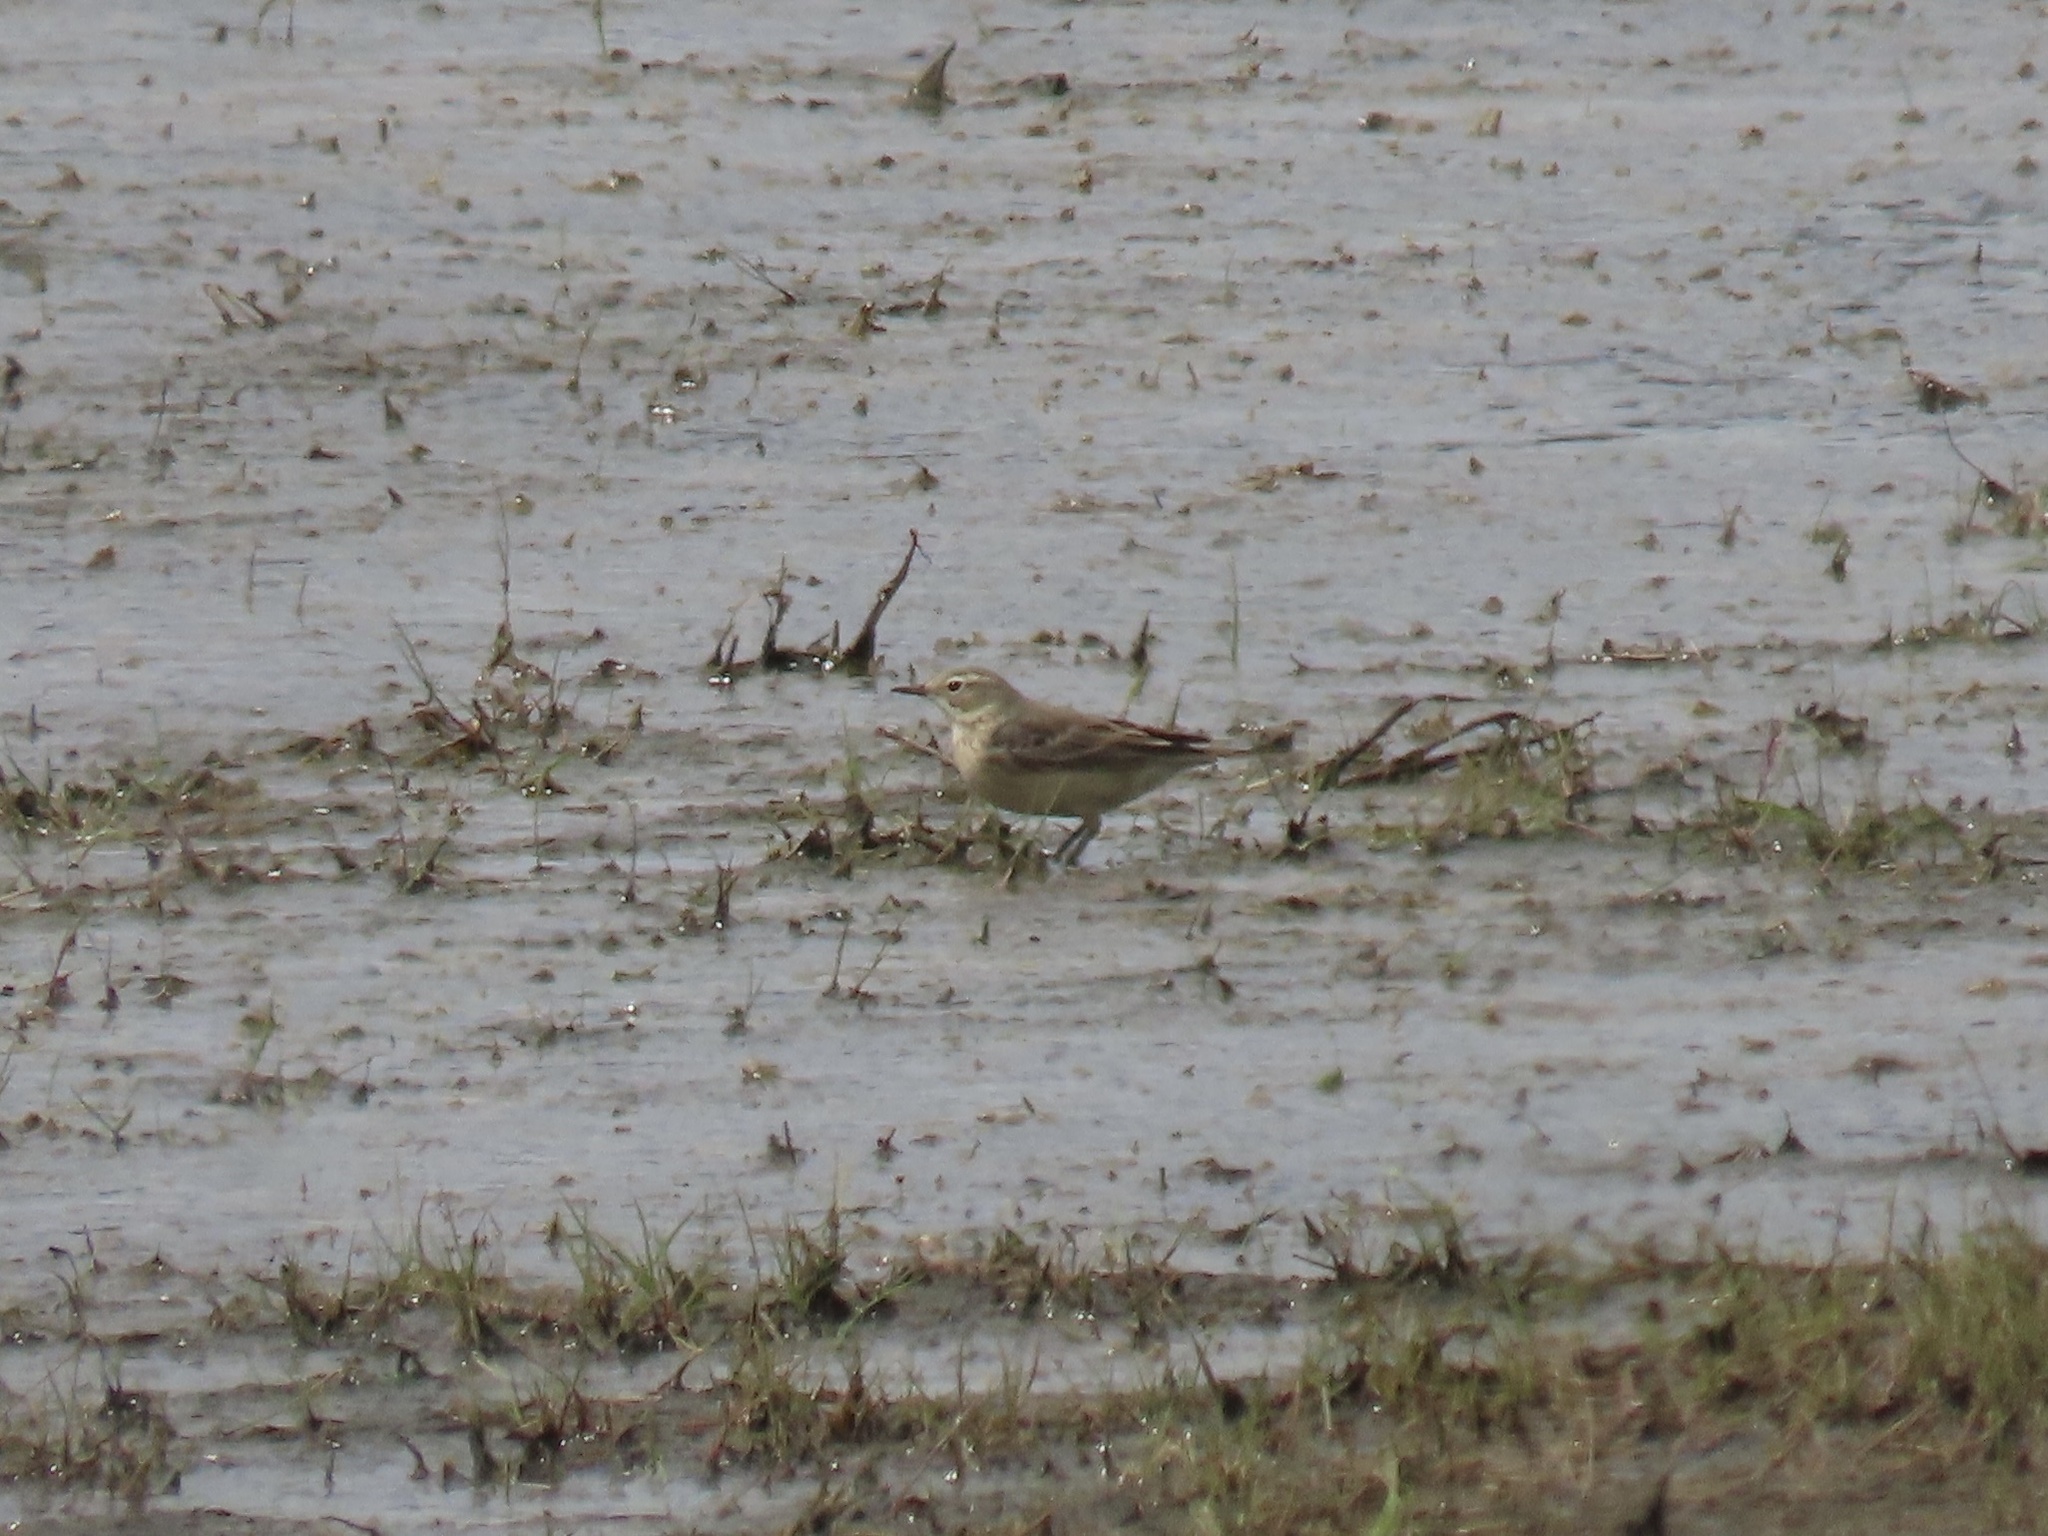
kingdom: Animalia
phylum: Chordata
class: Aves
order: Passeriformes
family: Motacillidae
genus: Anthus
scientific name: Anthus rubescens
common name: Buff-bellied pipit
